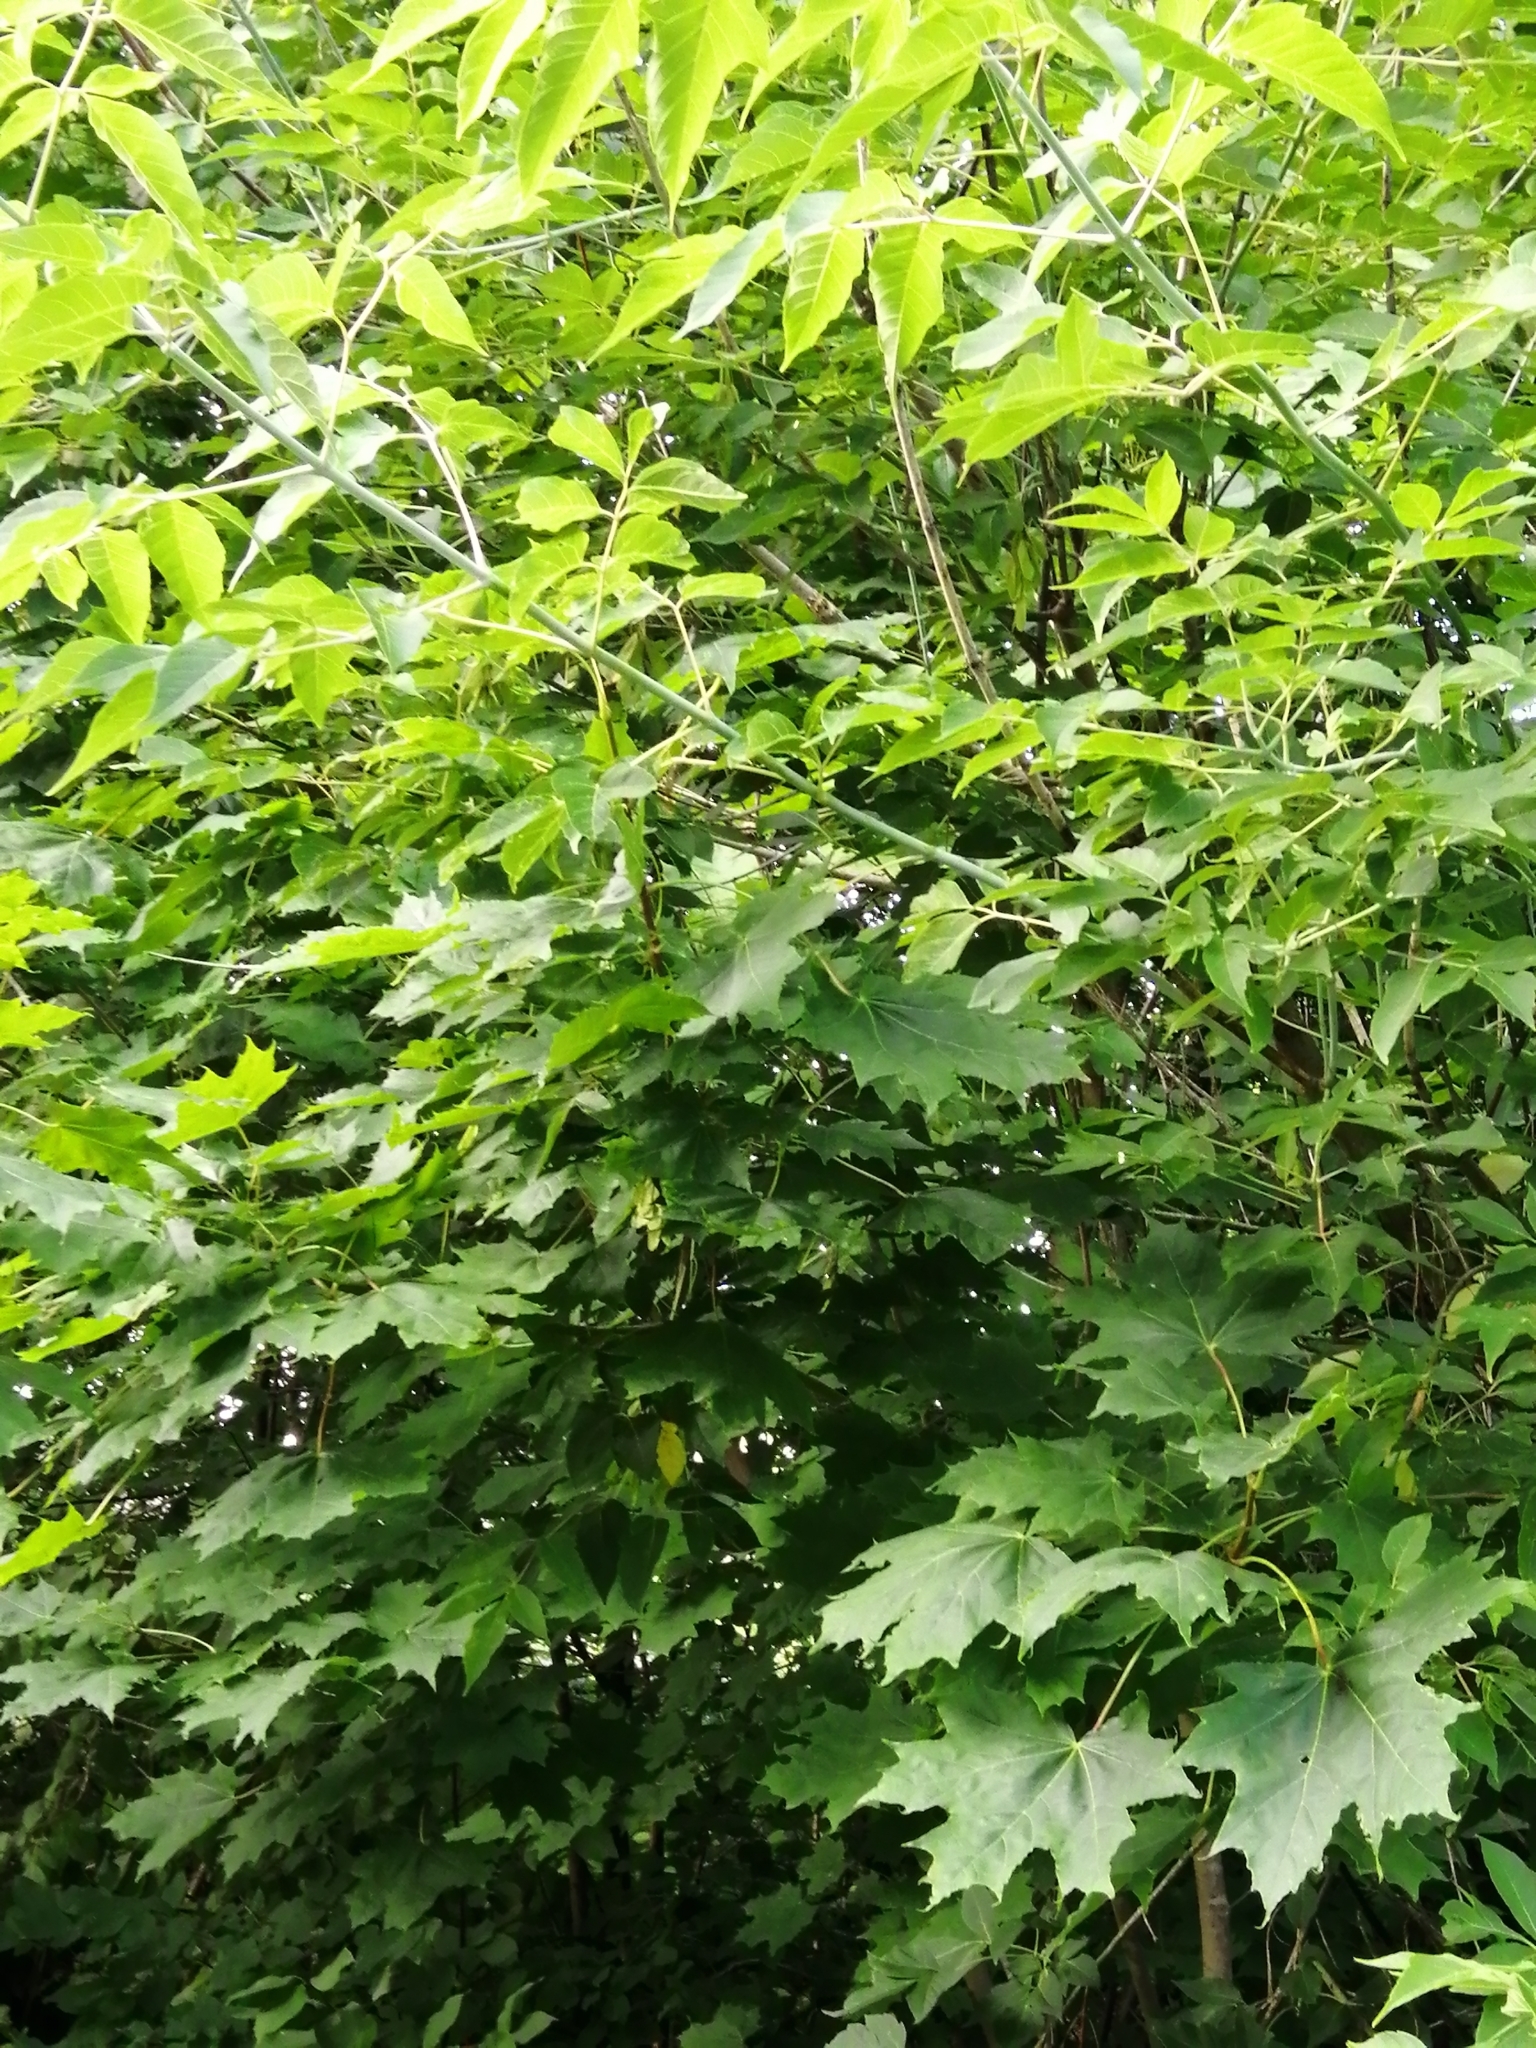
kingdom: Plantae
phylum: Tracheophyta
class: Magnoliopsida
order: Sapindales
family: Sapindaceae
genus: Acer
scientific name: Acer platanoides
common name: Norway maple
